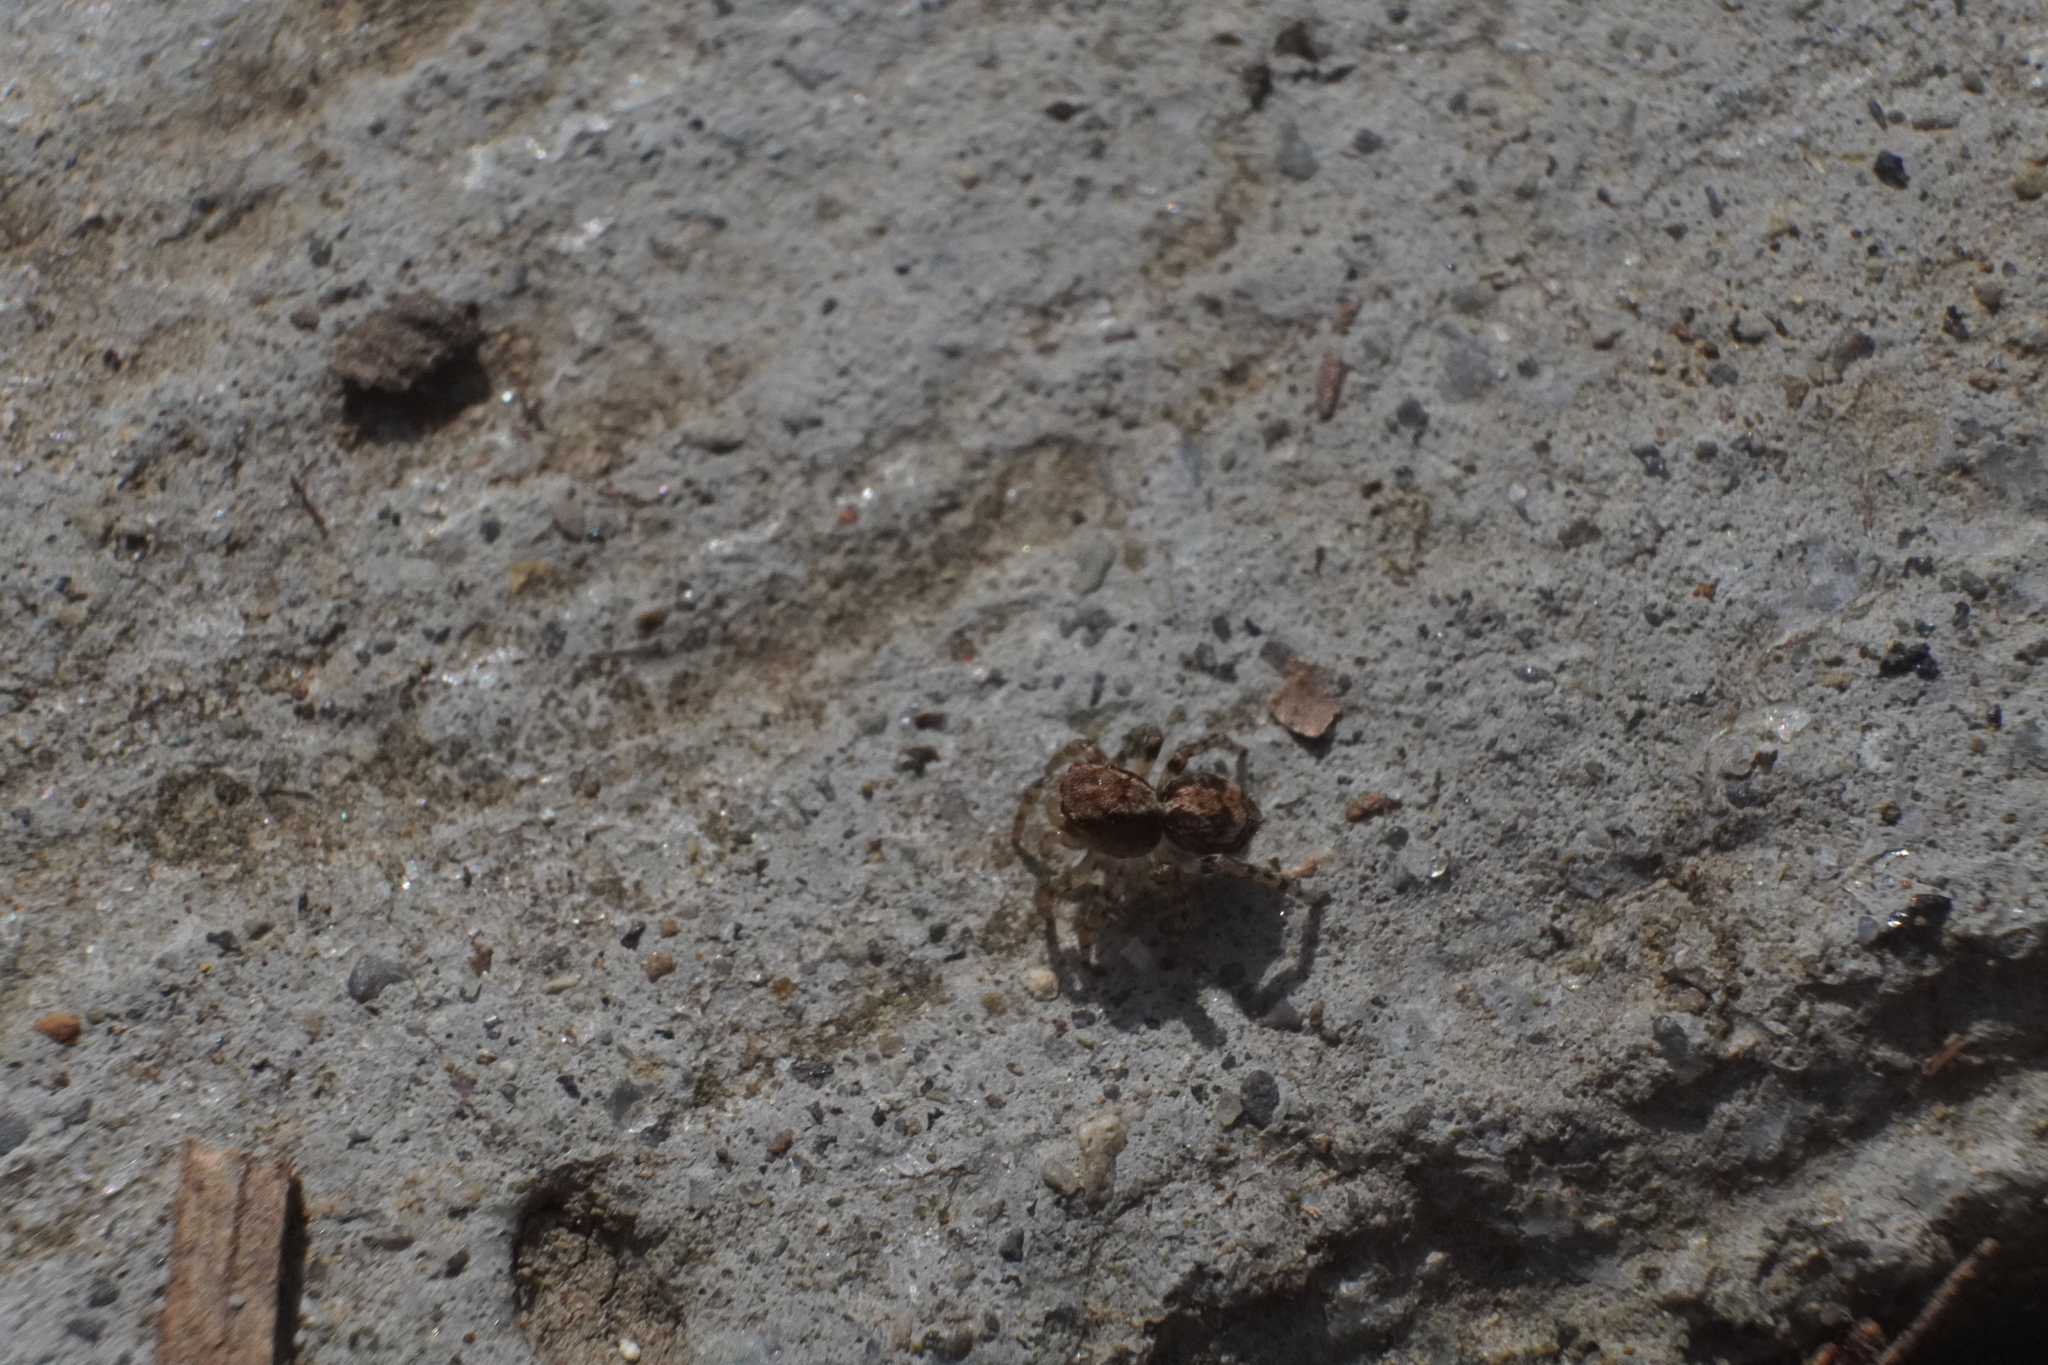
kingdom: Animalia
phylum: Arthropoda
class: Arachnida
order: Araneae
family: Salticidae
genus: Naphrys
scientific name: Naphrys pulex
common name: Flea jumping spider
